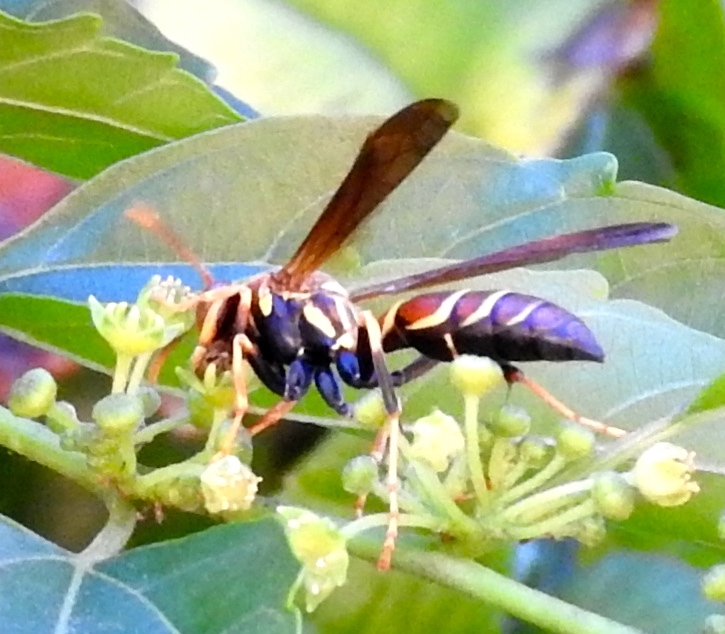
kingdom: Animalia
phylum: Arthropoda
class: Insecta
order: Hymenoptera
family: Eumenidae
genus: Polistes
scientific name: Polistes instabilis
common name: Unstable paper wasp
